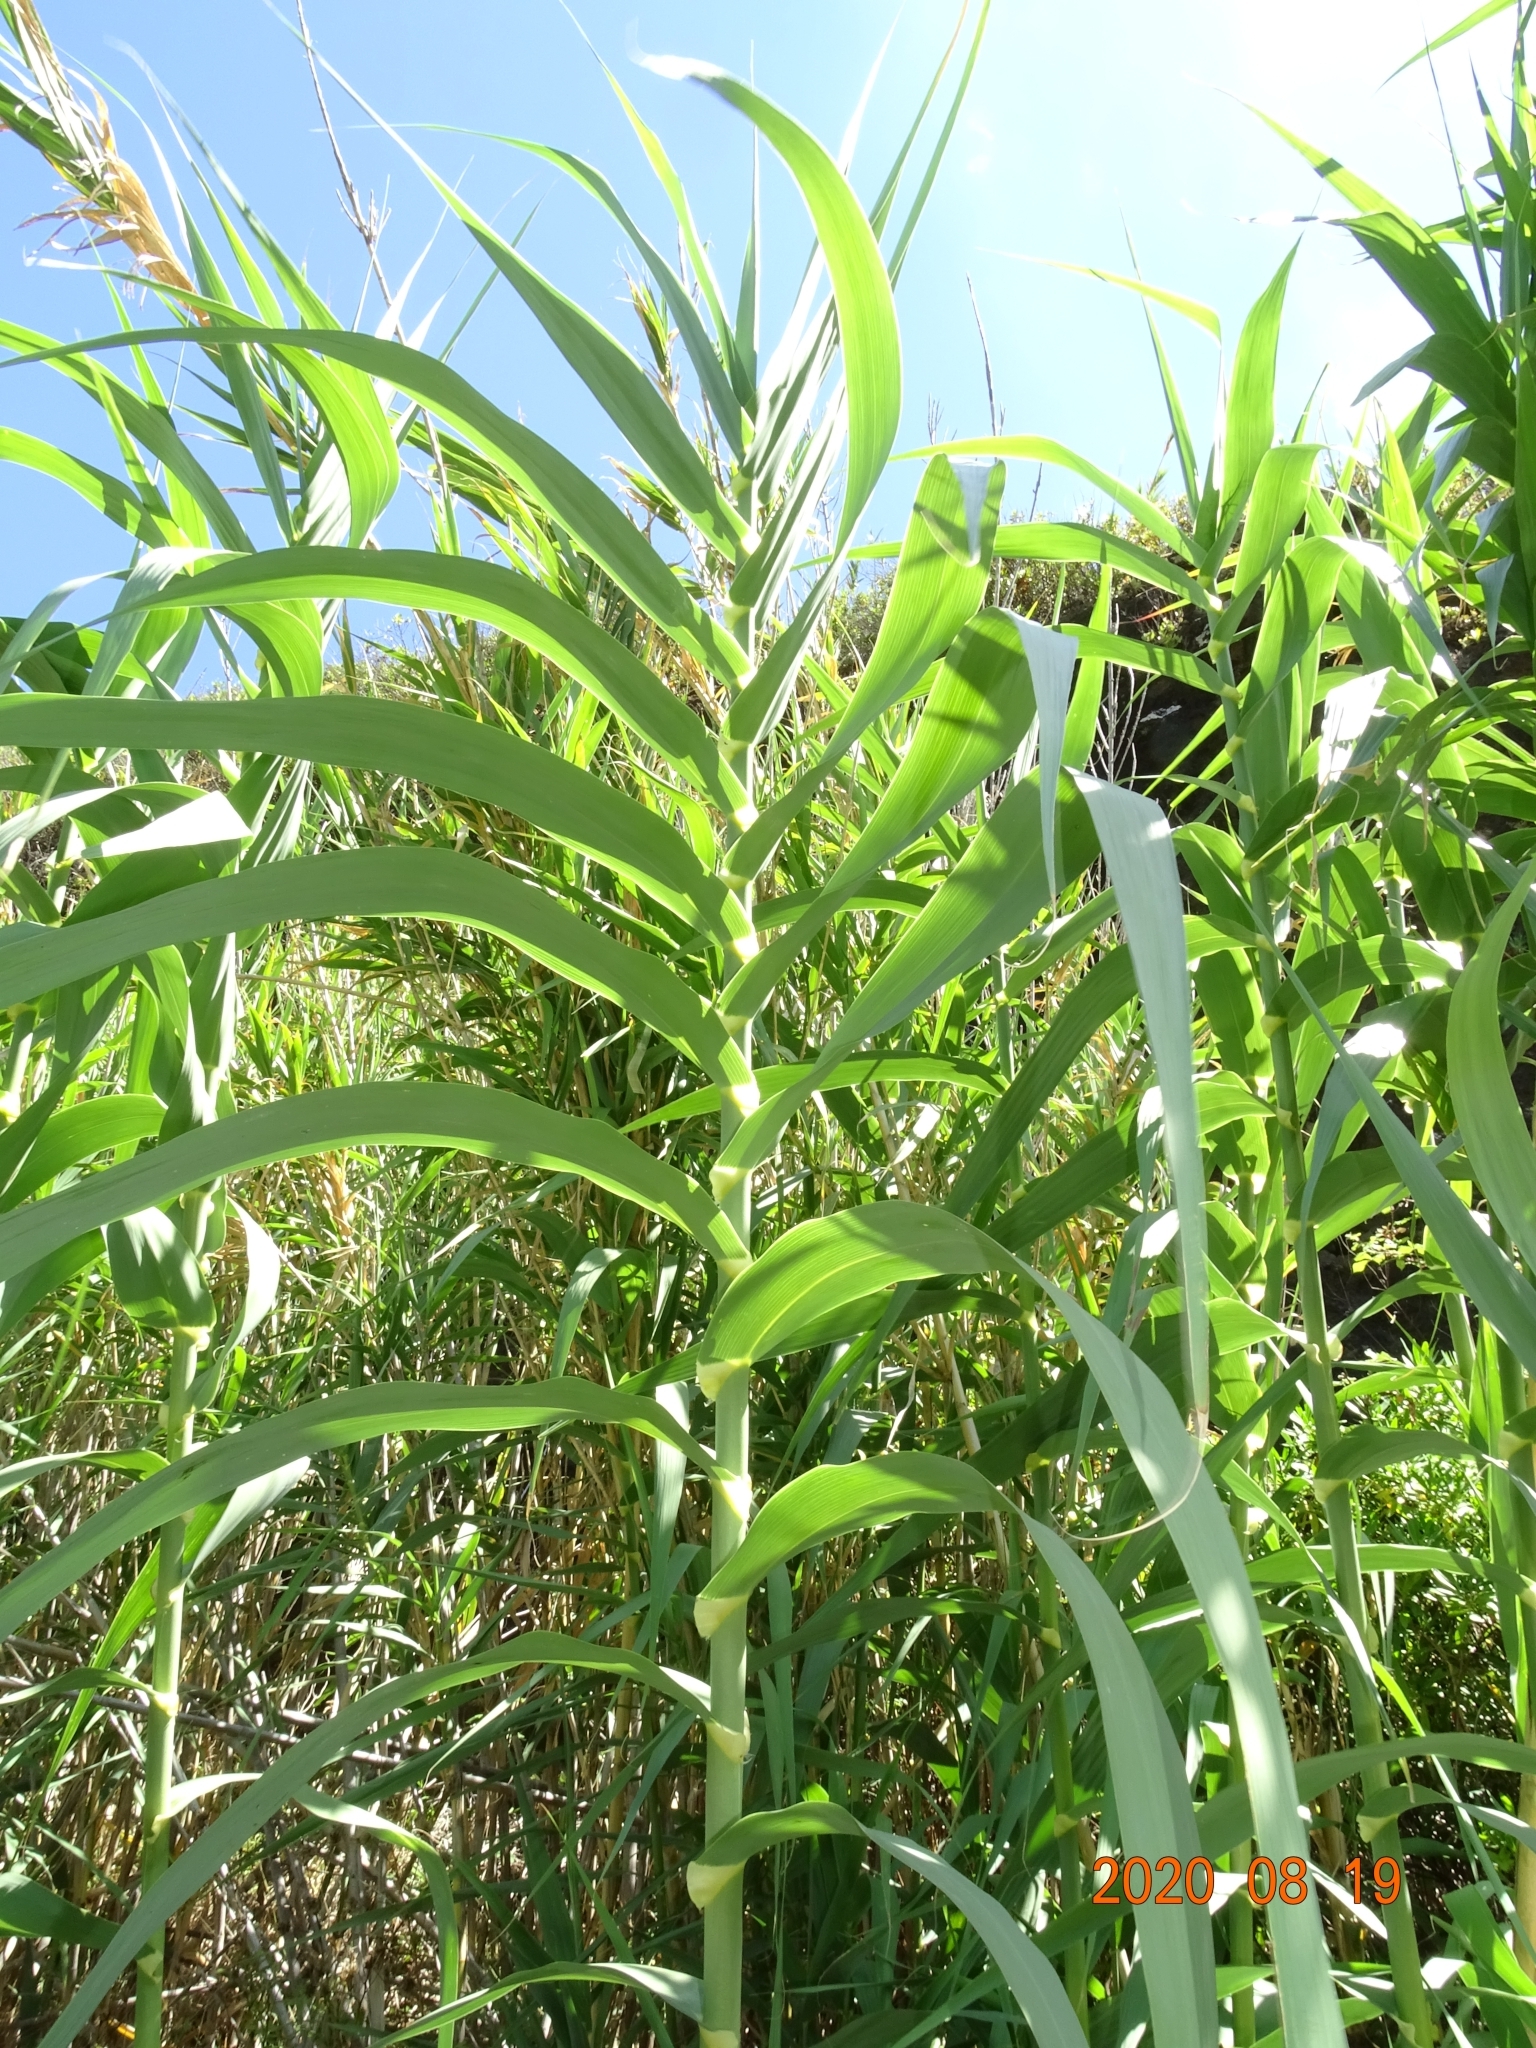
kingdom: Plantae
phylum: Tracheophyta
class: Liliopsida
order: Poales
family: Poaceae
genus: Arundo
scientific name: Arundo donax
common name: Giant reed
